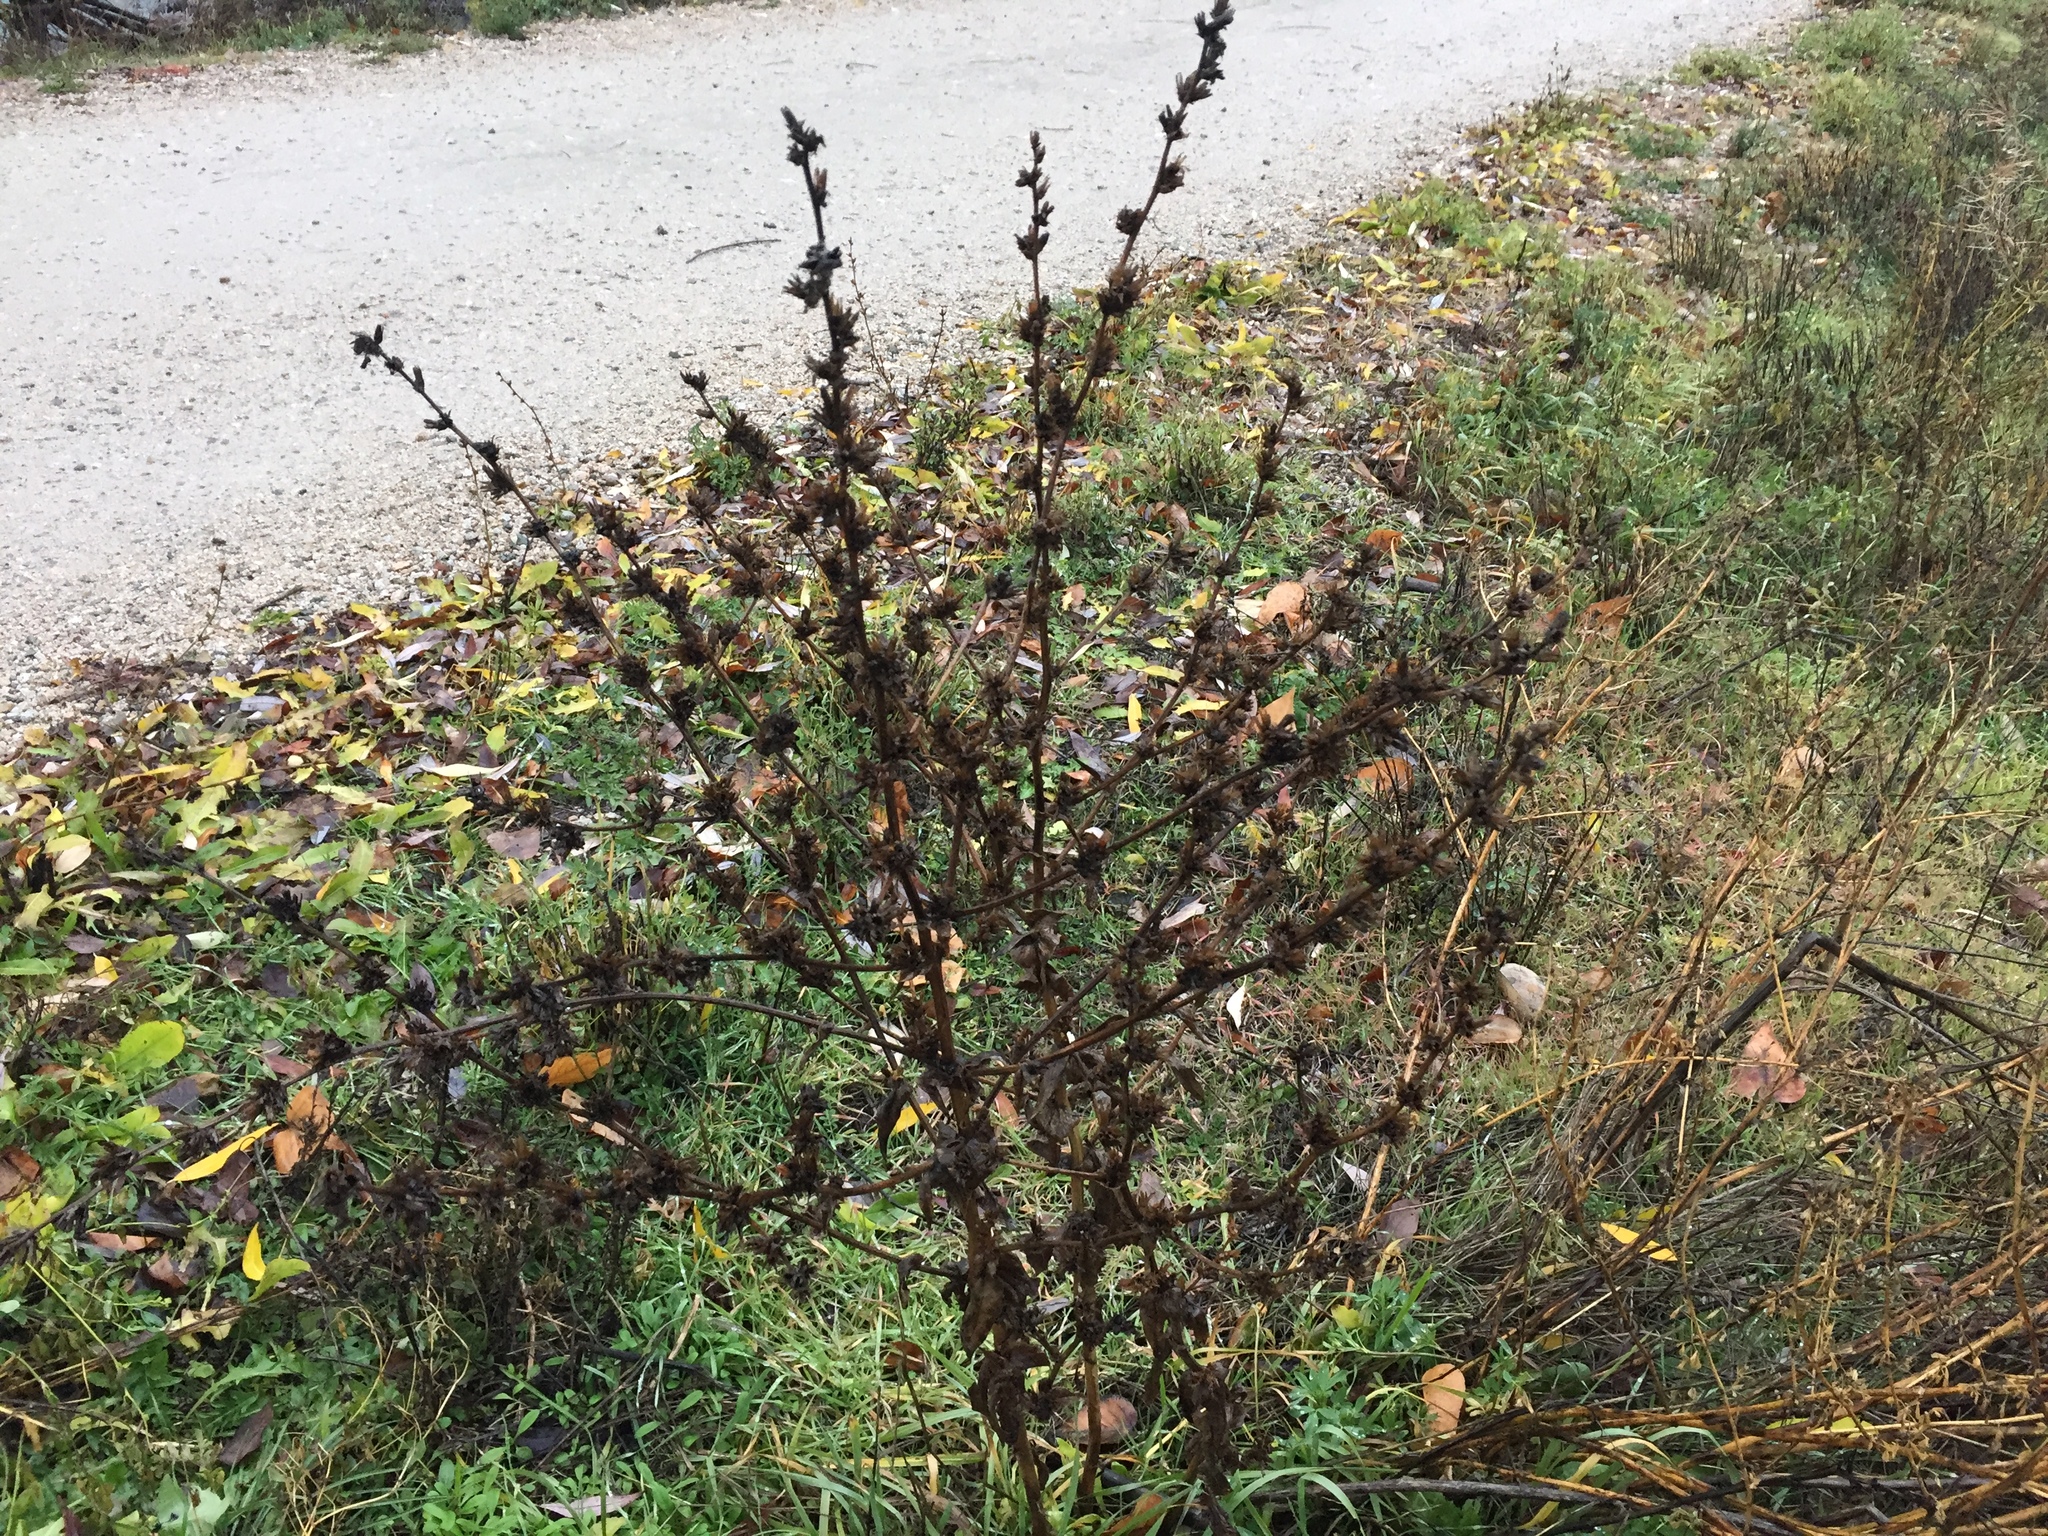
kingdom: Plantae
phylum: Tracheophyta
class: Magnoliopsida
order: Asterales
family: Asteraceae
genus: Cichorium
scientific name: Cichorium intybus
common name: Chicory
